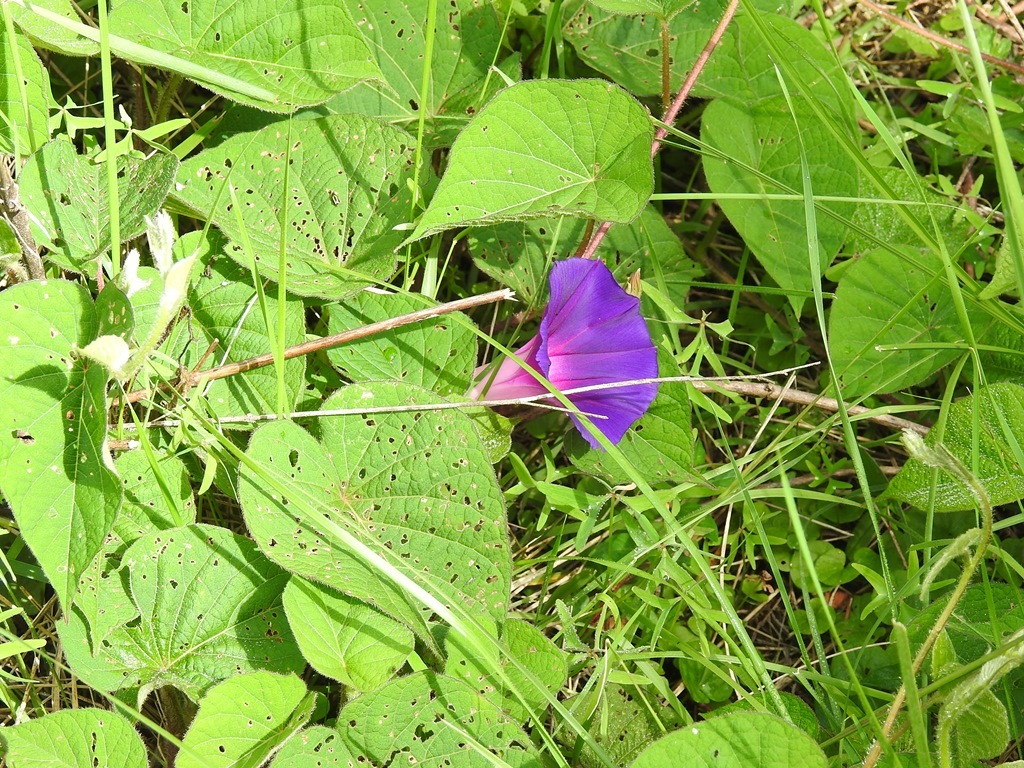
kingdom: Plantae
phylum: Tracheophyta
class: Magnoliopsida
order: Solanales
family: Convolvulaceae
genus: Ipomoea
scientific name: Ipomoea orizabensis
